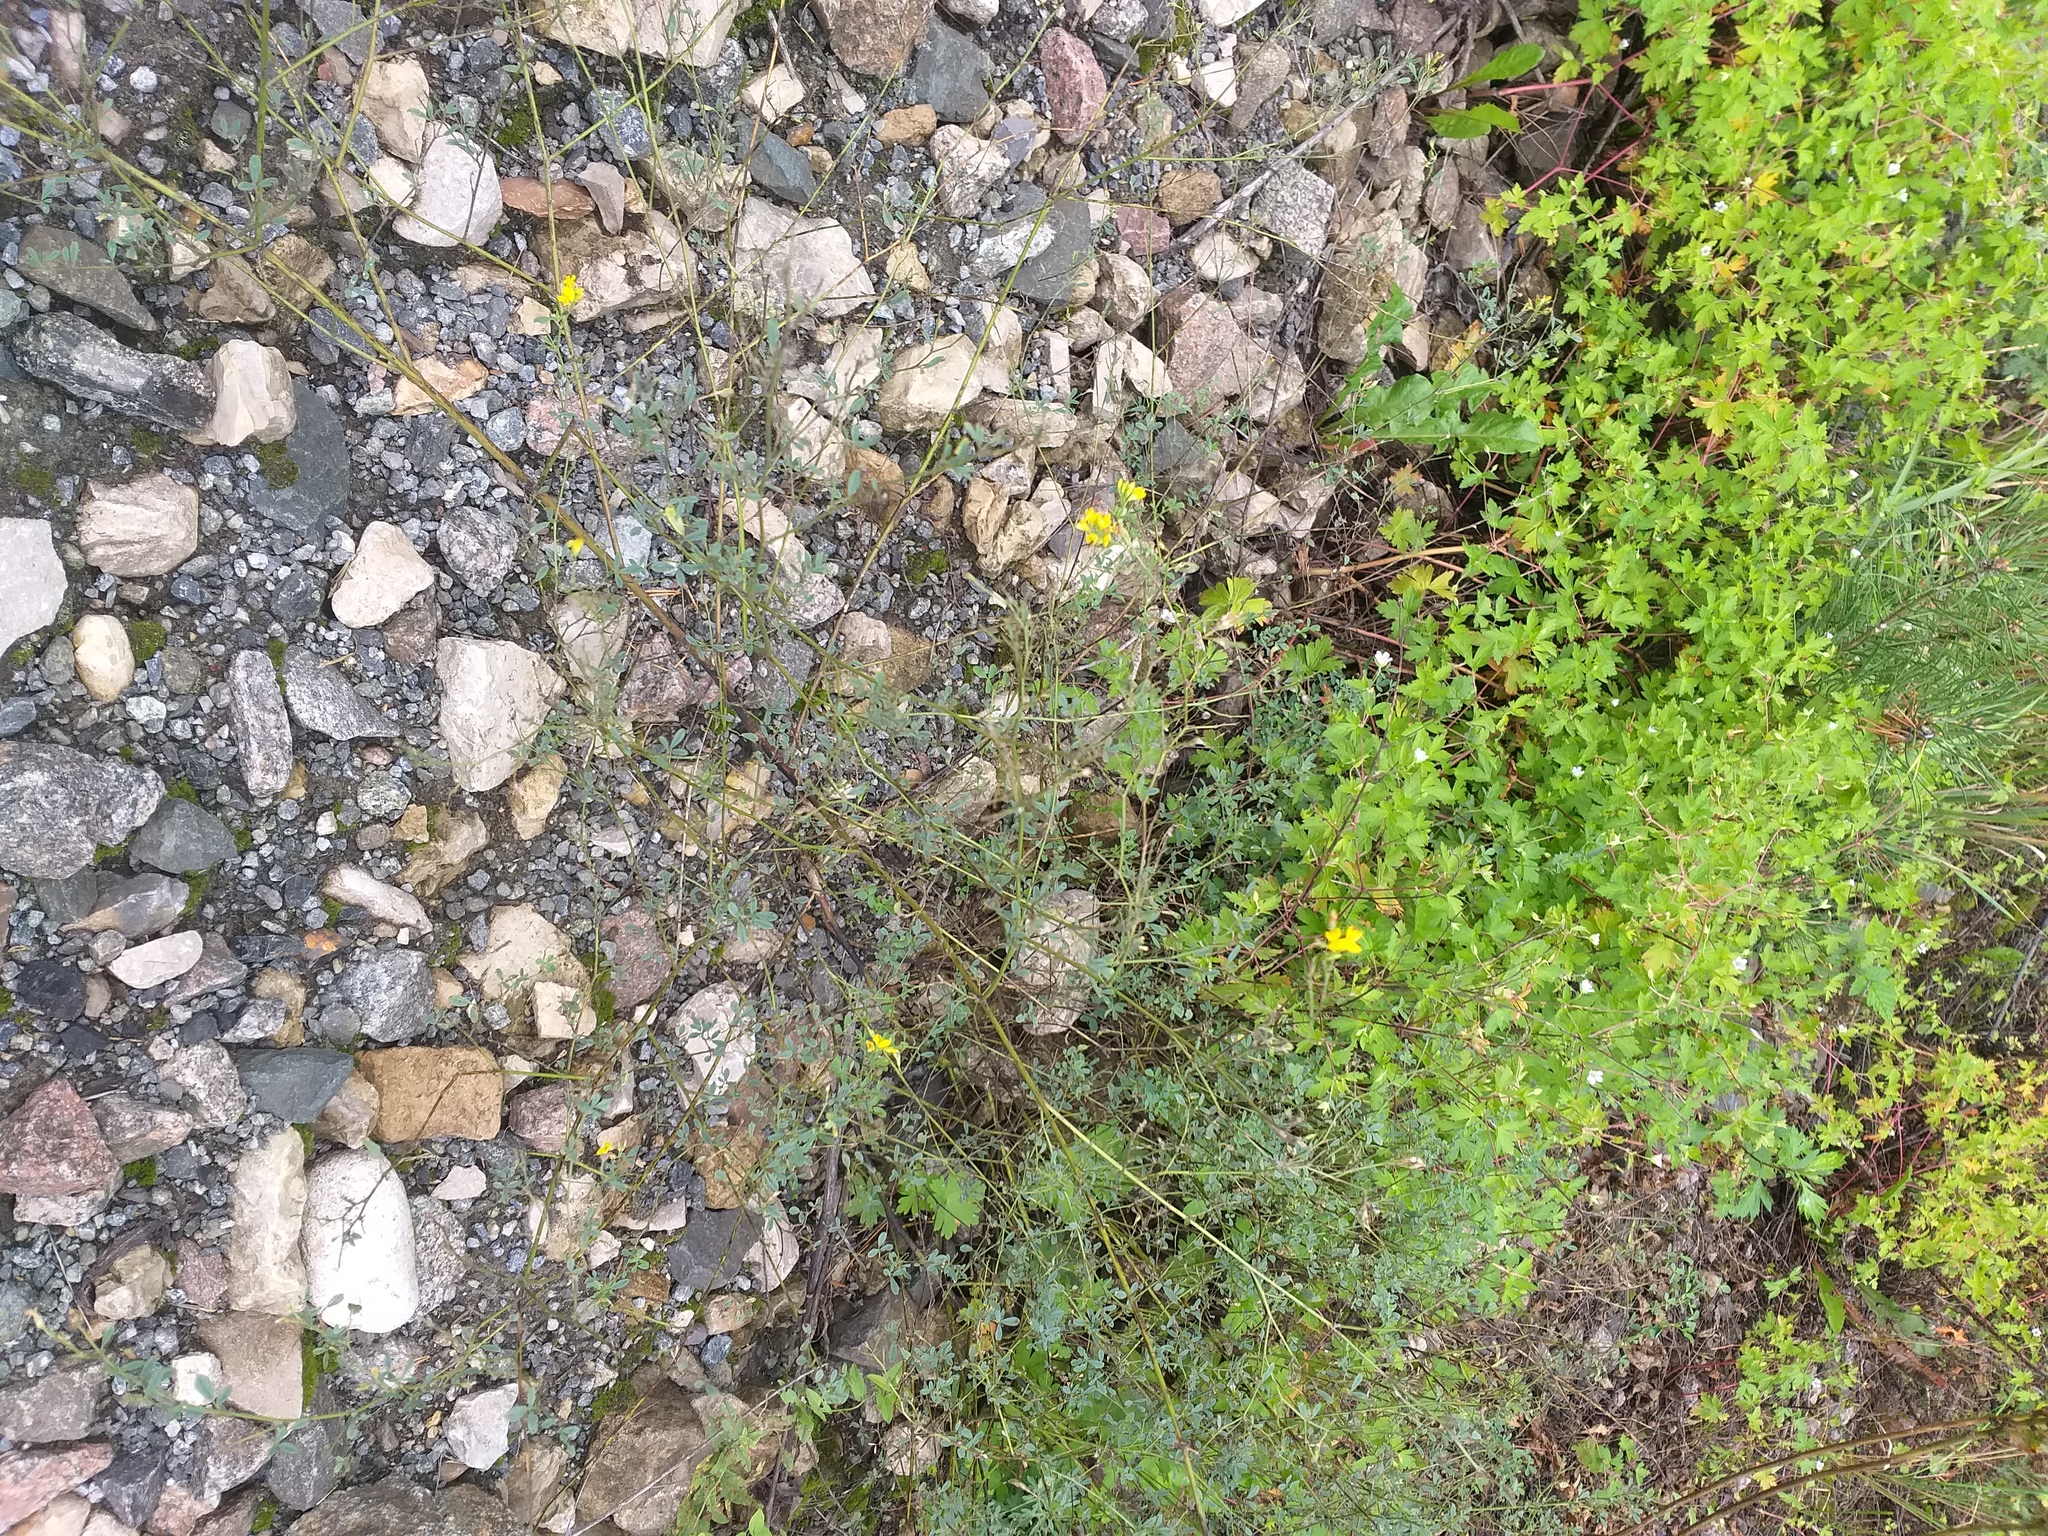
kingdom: Plantae
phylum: Tracheophyta
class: Magnoliopsida
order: Fabales
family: Fabaceae
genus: Medicago
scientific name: Medicago falcata
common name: Sickle medick
